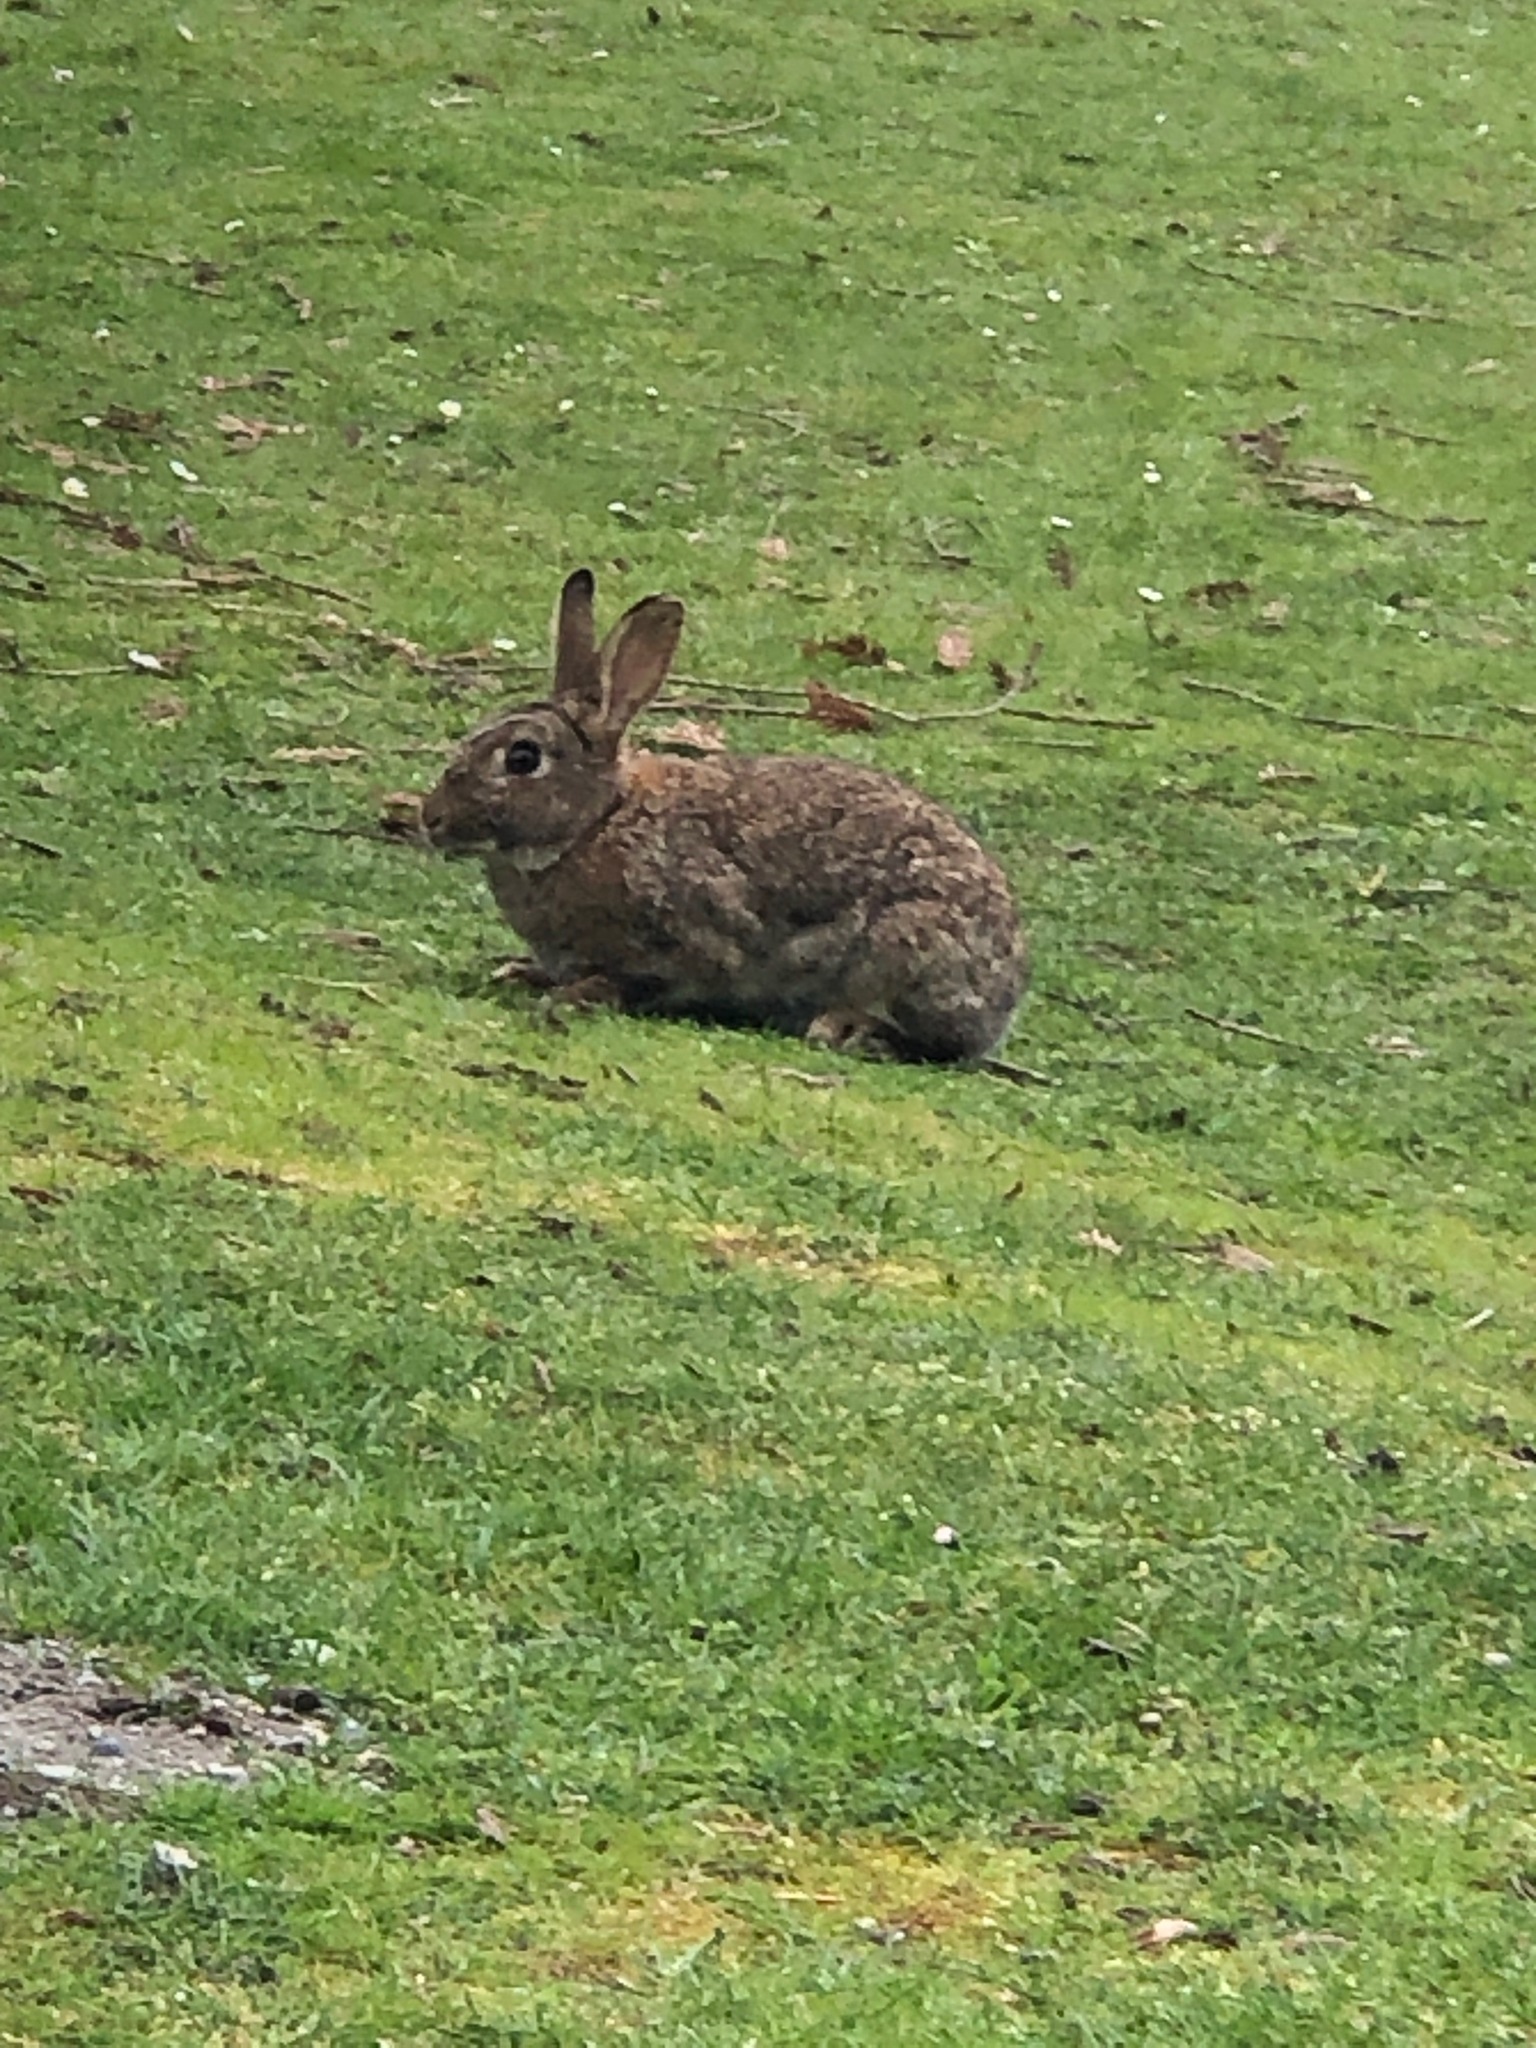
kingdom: Animalia
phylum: Chordata
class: Mammalia
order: Lagomorpha
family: Leporidae
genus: Oryctolagus
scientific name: Oryctolagus cuniculus
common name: European rabbit
